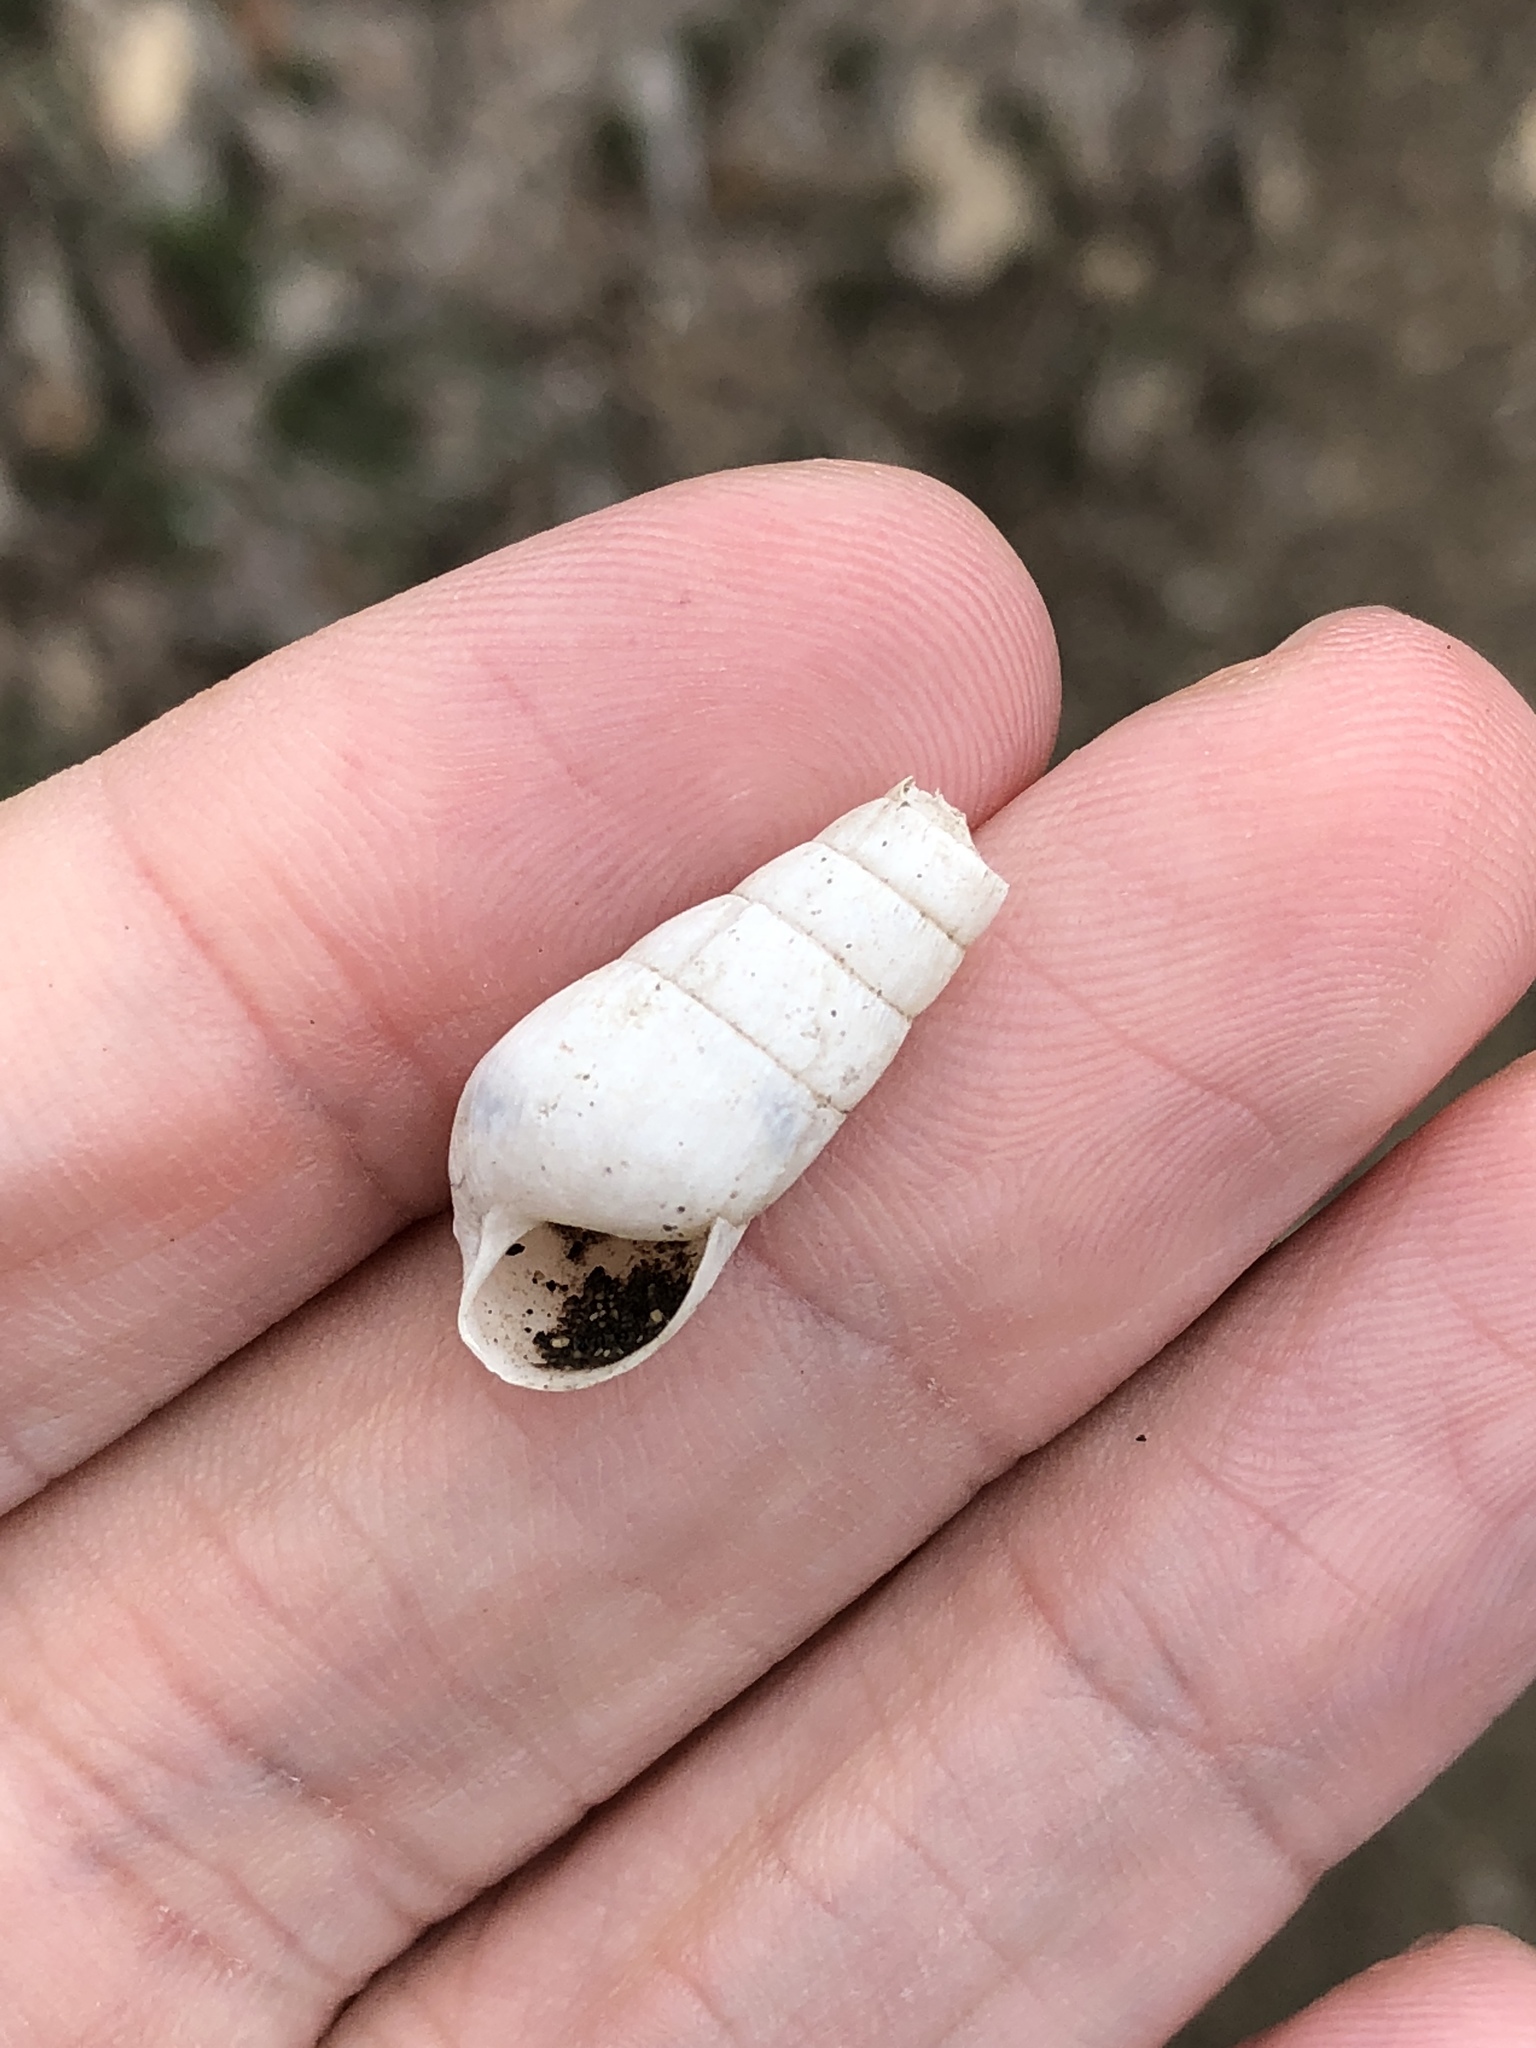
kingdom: Animalia
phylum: Mollusca
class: Gastropoda
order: Stylommatophora
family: Achatinidae
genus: Rumina
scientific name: Rumina decollata
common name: Decollate snail
